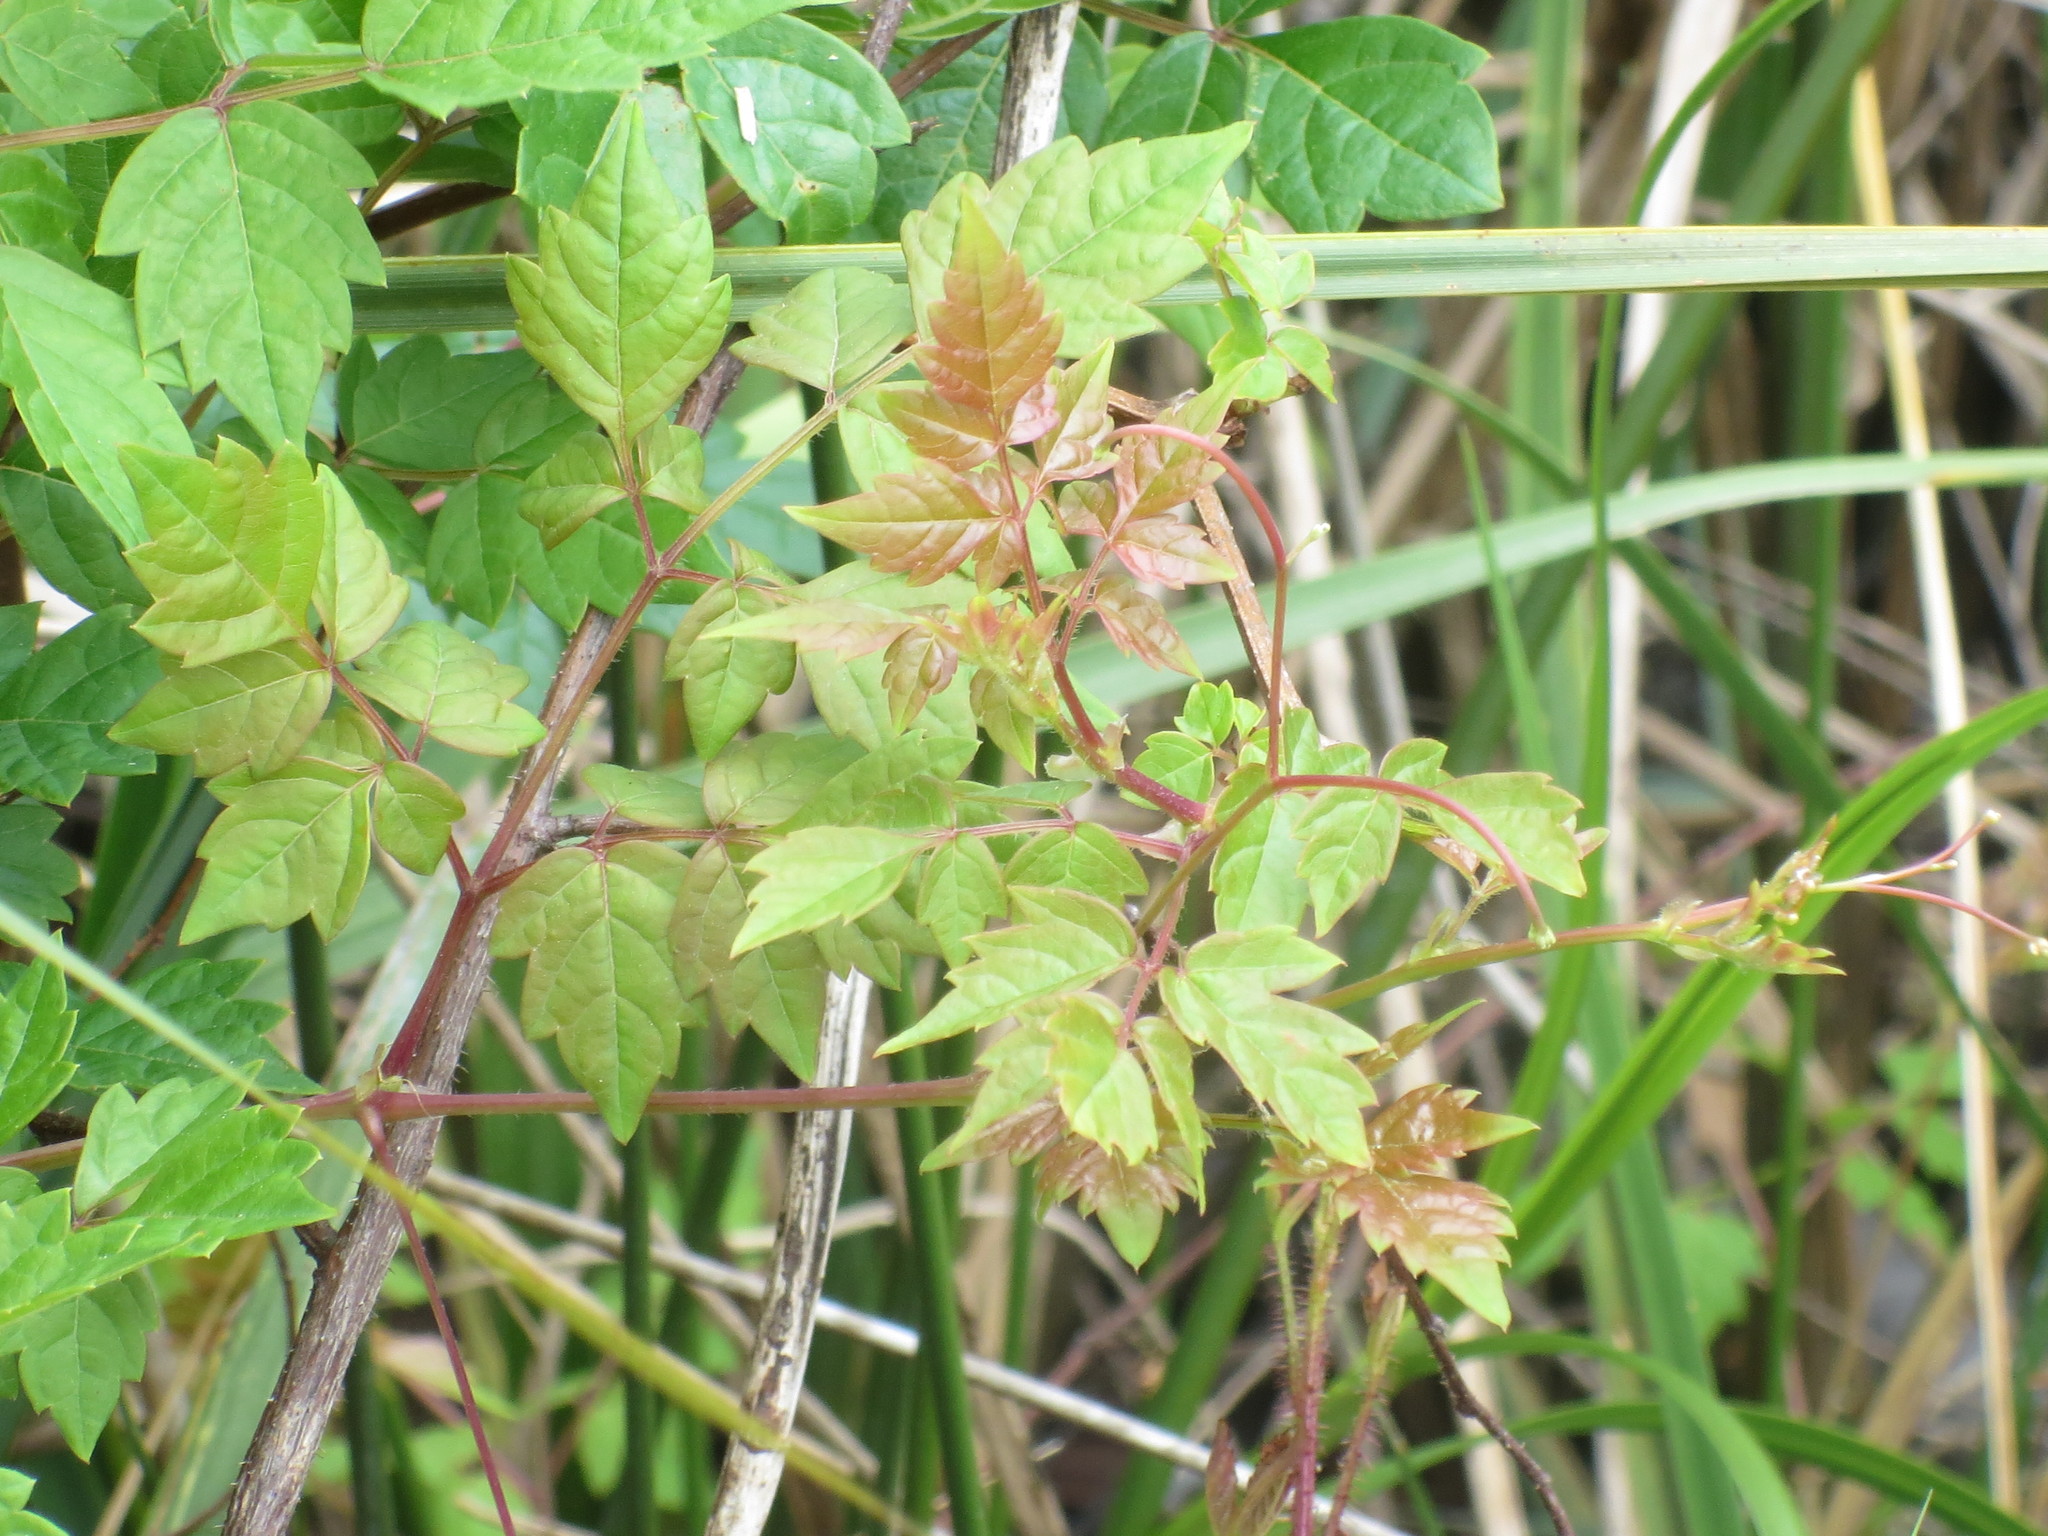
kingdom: Plantae
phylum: Tracheophyta
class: Magnoliopsida
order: Vitales
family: Vitaceae
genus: Nekemias
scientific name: Nekemias arborea
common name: Peppervine
